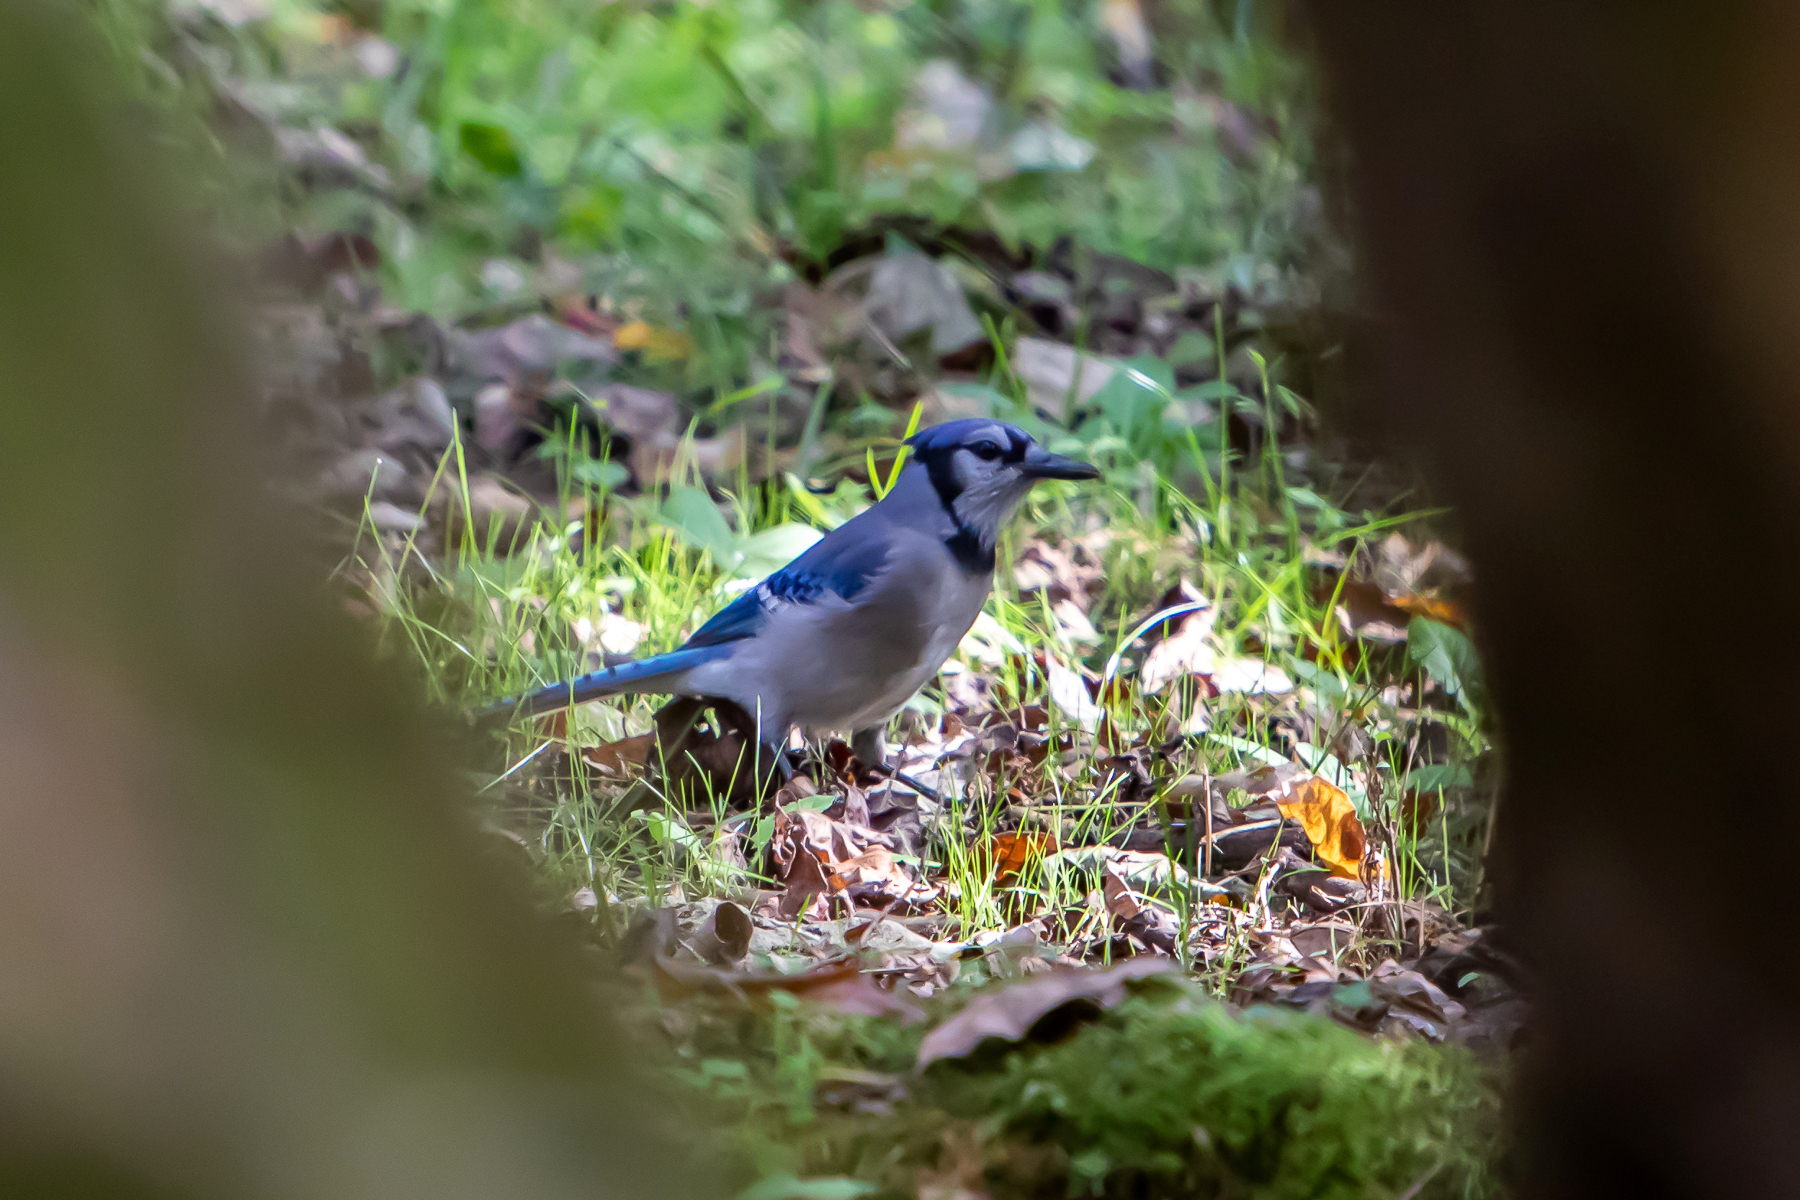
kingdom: Animalia
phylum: Chordata
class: Aves
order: Passeriformes
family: Corvidae
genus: Cyanocitta
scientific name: Cyanocitta cristata
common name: Blue jay
